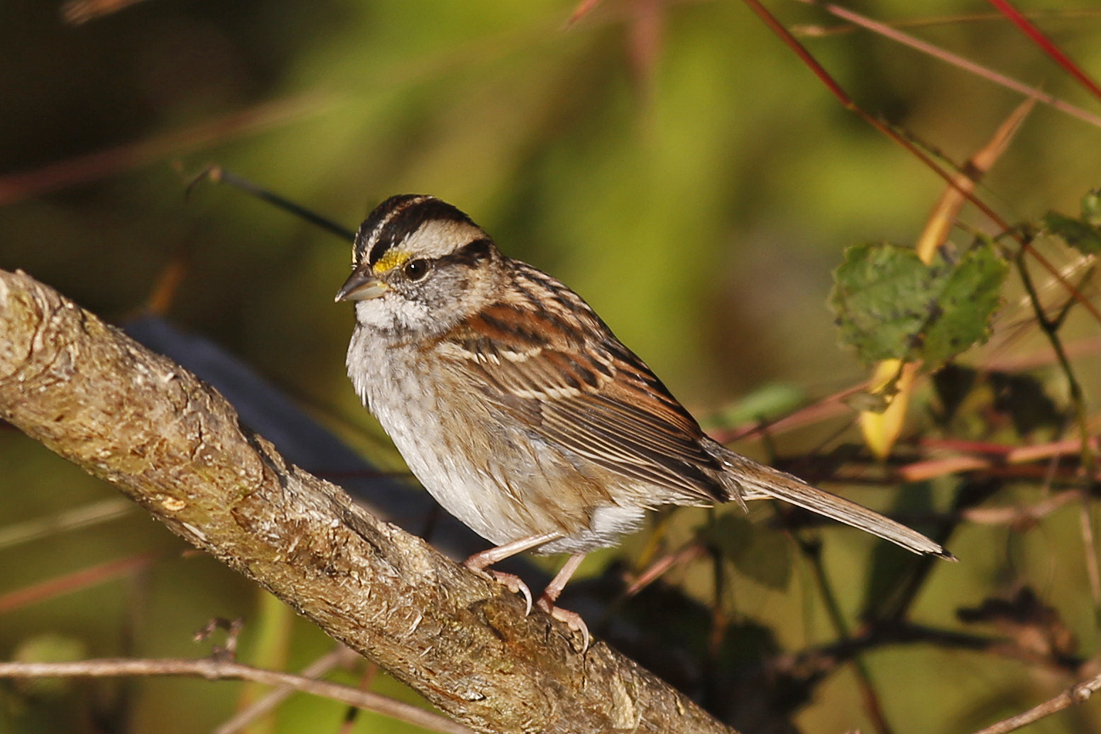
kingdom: Animalia
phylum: Chordata
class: Aves
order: Passeriformes
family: Passerellidae
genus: Zonotrichia
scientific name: Zonotrichia albicollis
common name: White-throated sparrow
